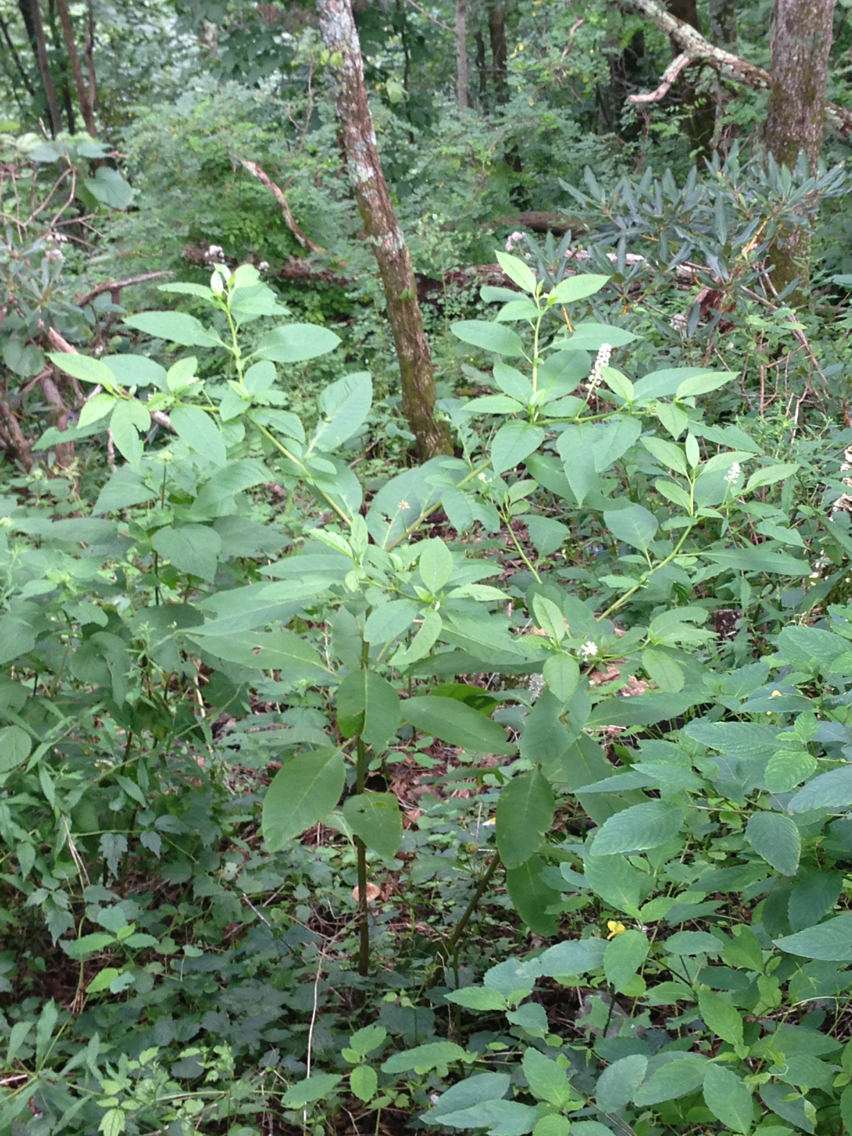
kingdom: Plantae
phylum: Tracheophyta
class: Magnoliopsida
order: Caryophyllales
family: Phytolaccaceae
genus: Phytolacca
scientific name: Phytolacca americana
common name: American pokeweed
